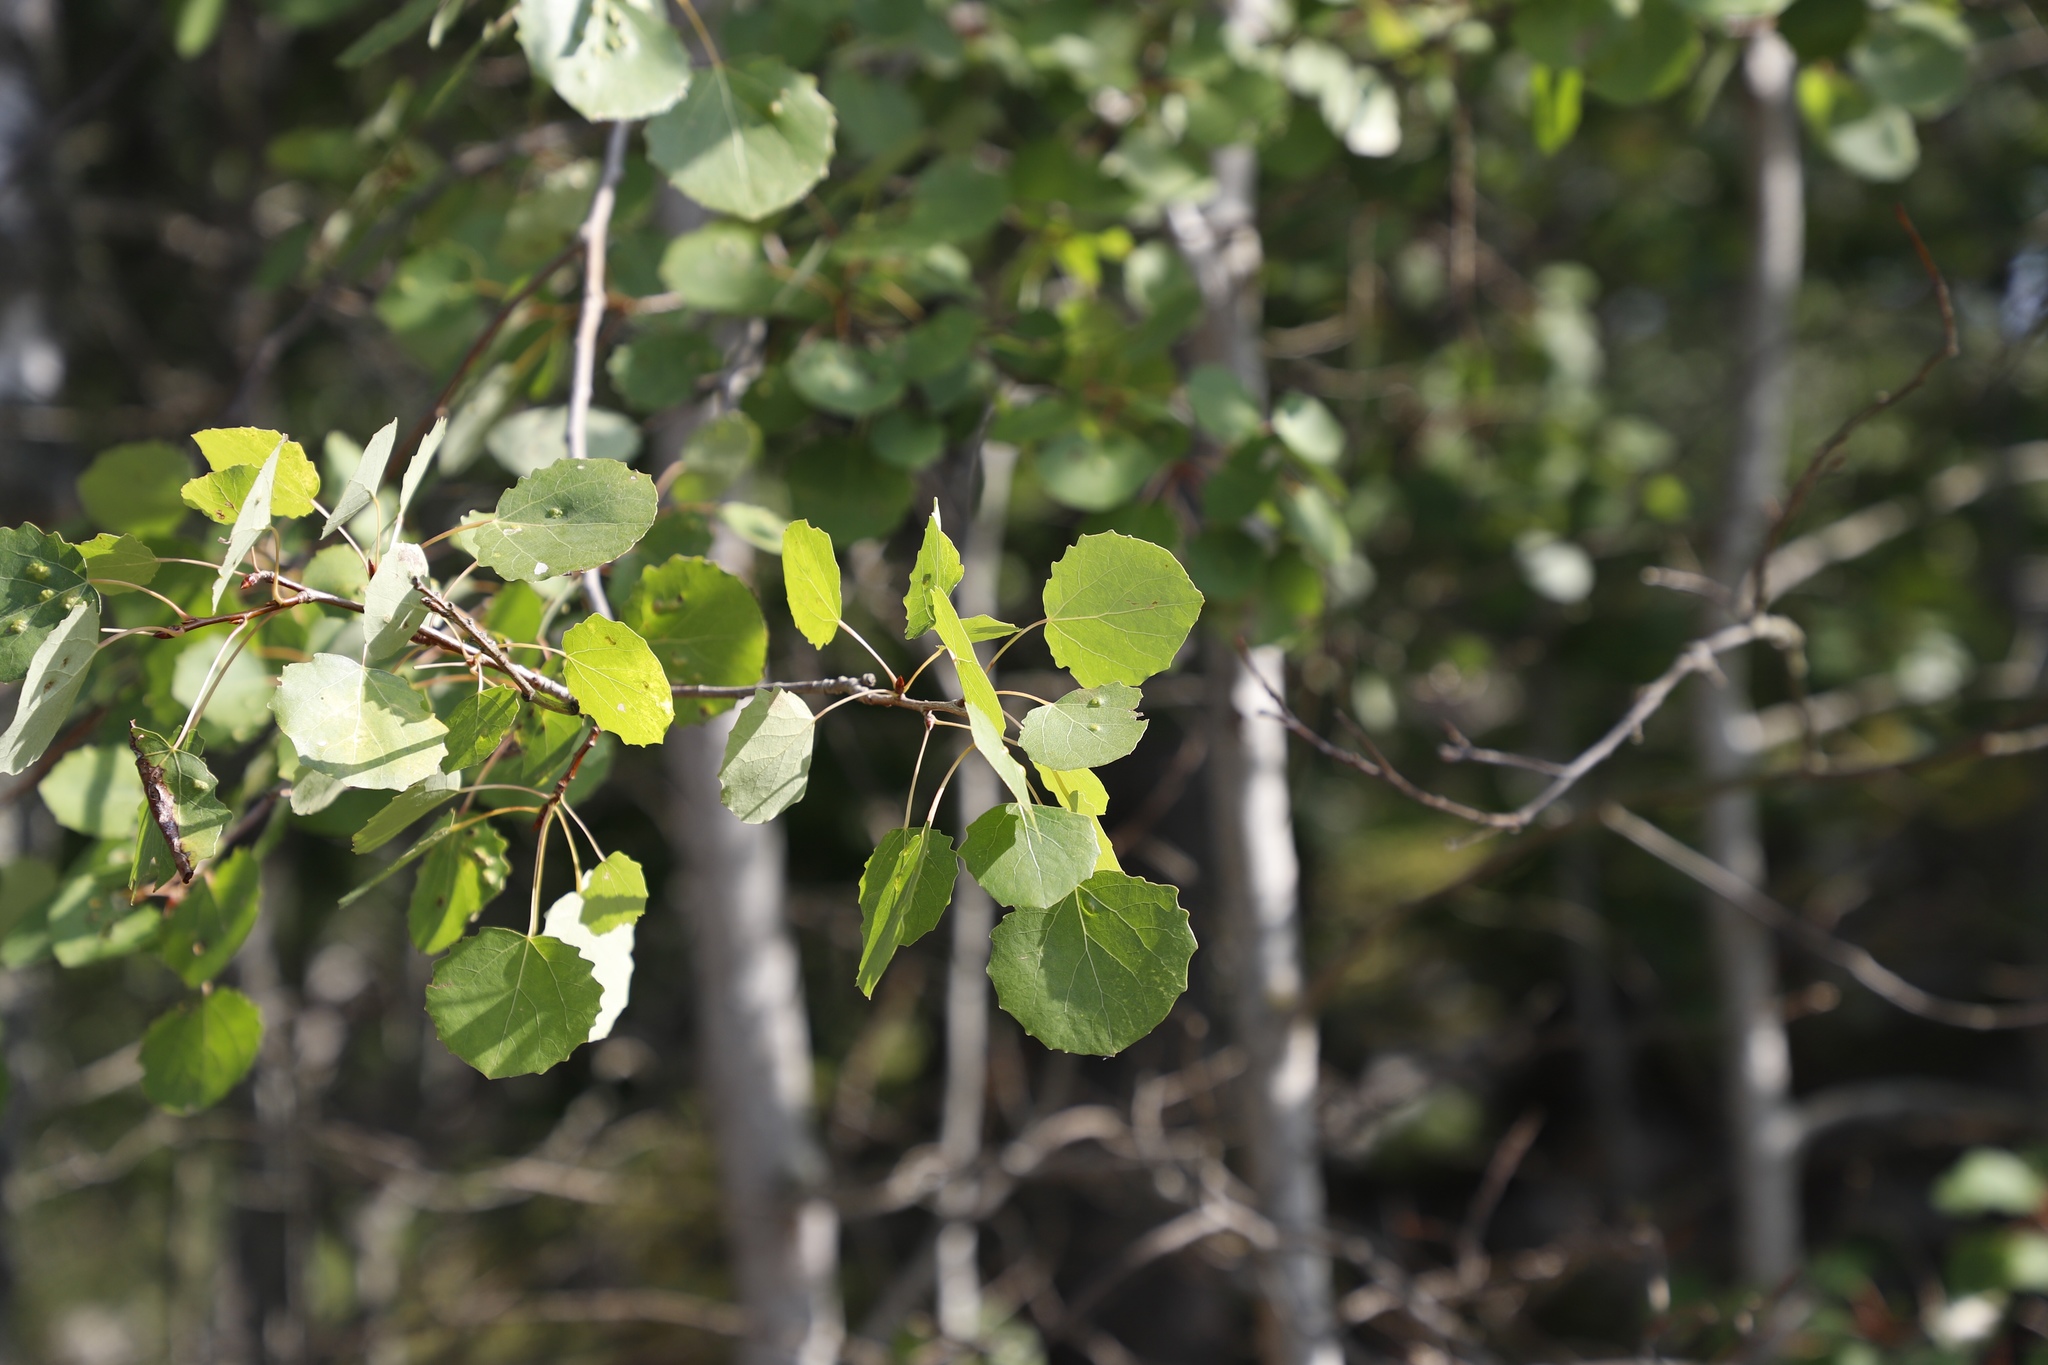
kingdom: Plantae
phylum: Tracheophyta
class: Magnoliopsida
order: Malpighiales
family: Salicaceae
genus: Populus
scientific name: Populus tremula
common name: European aspen
